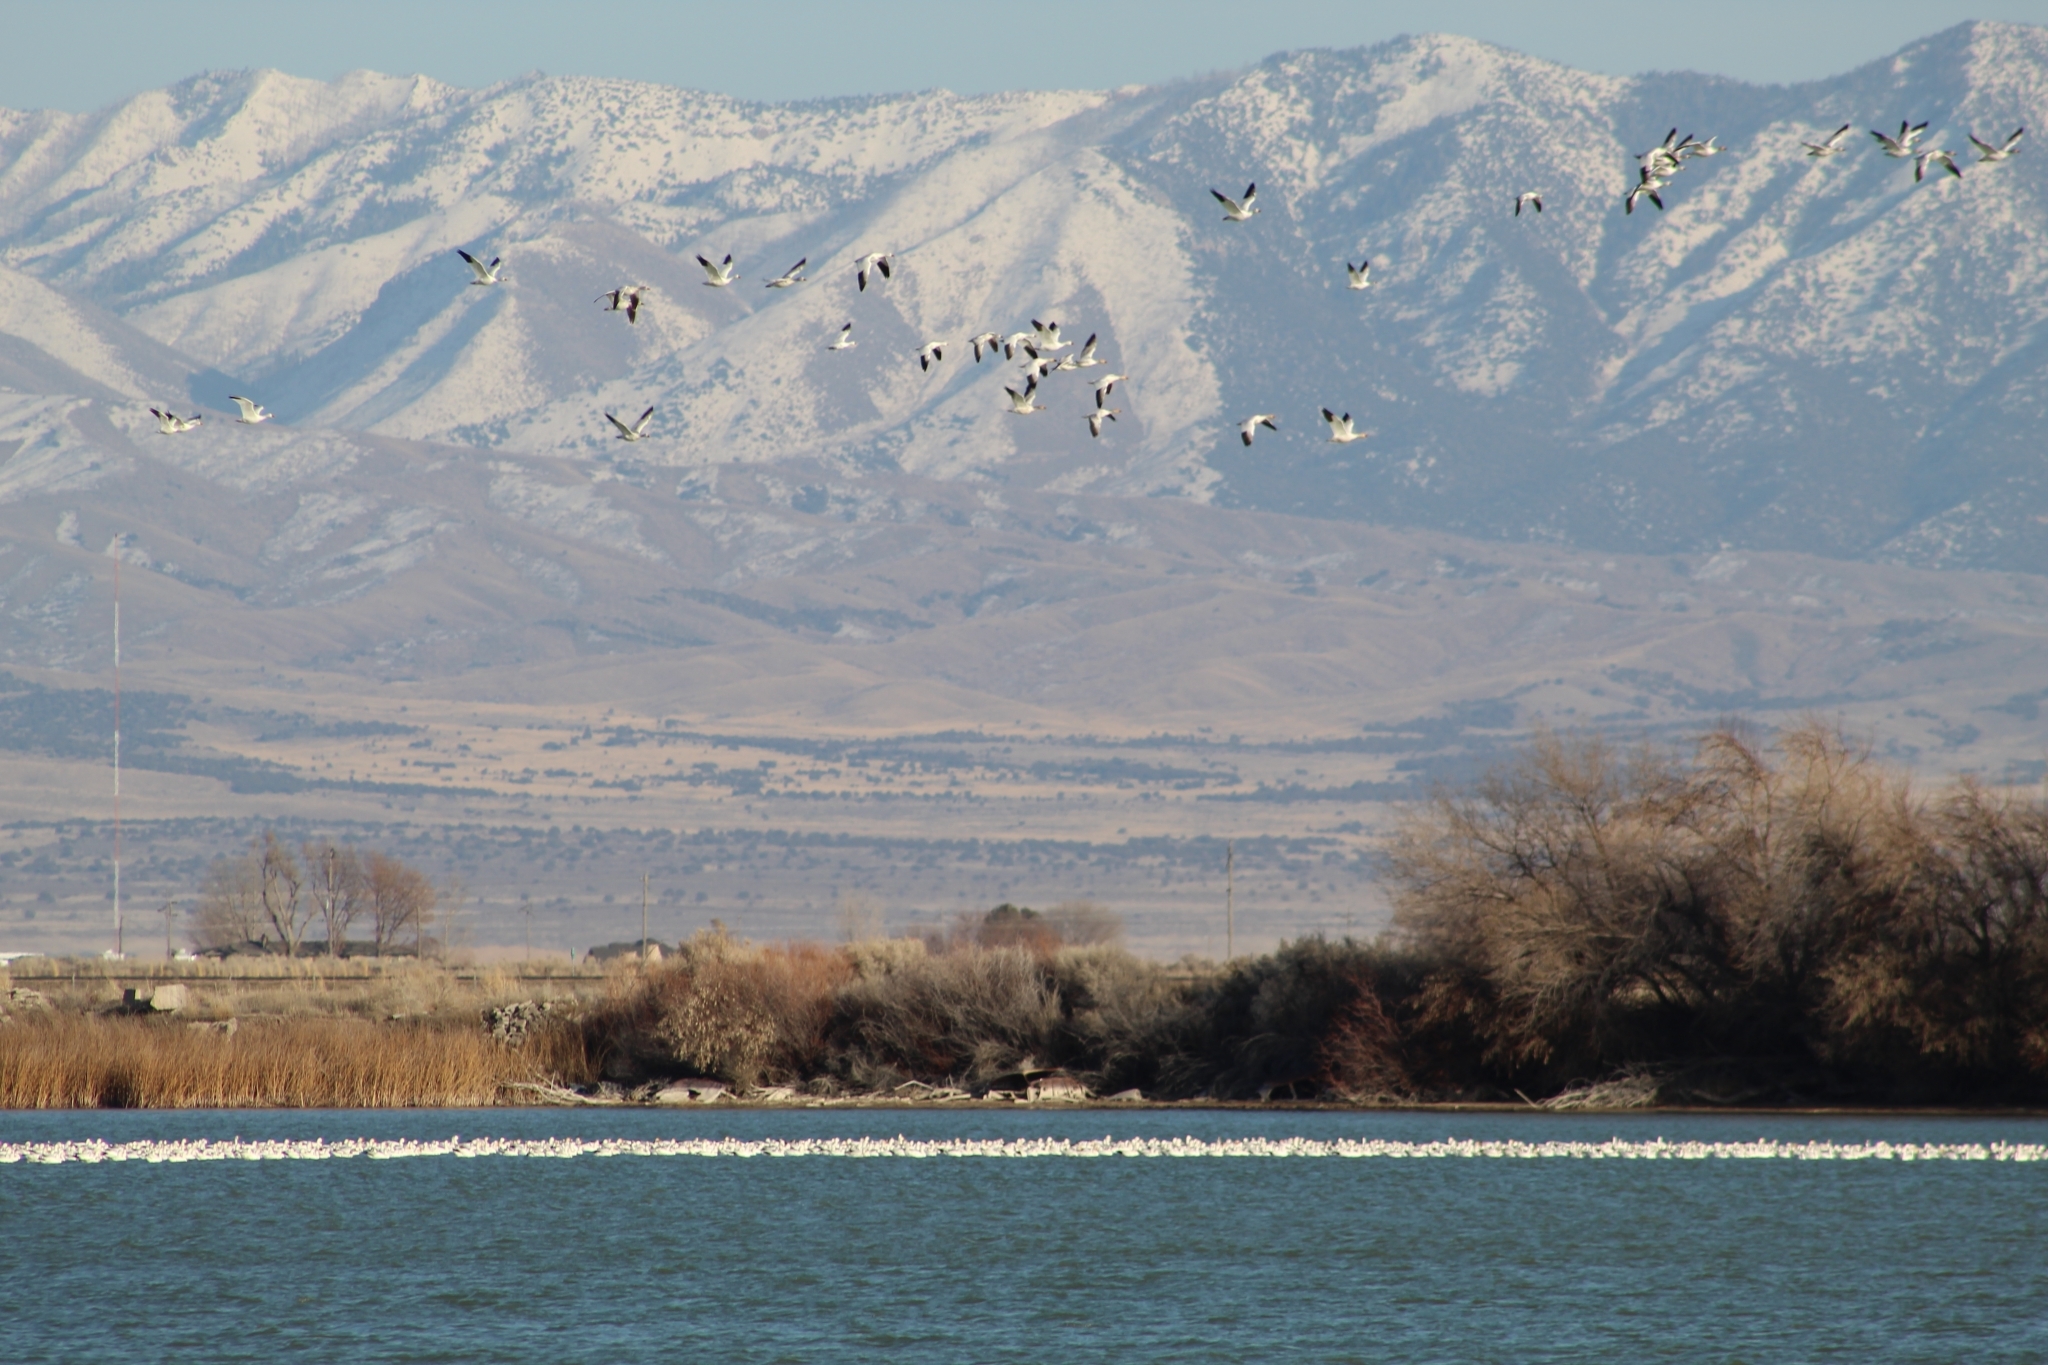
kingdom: Animalia
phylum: Chordata
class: Aves
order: Anseriformes
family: Anatidae
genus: Anser
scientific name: Anser caerulescens
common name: Snow goose
